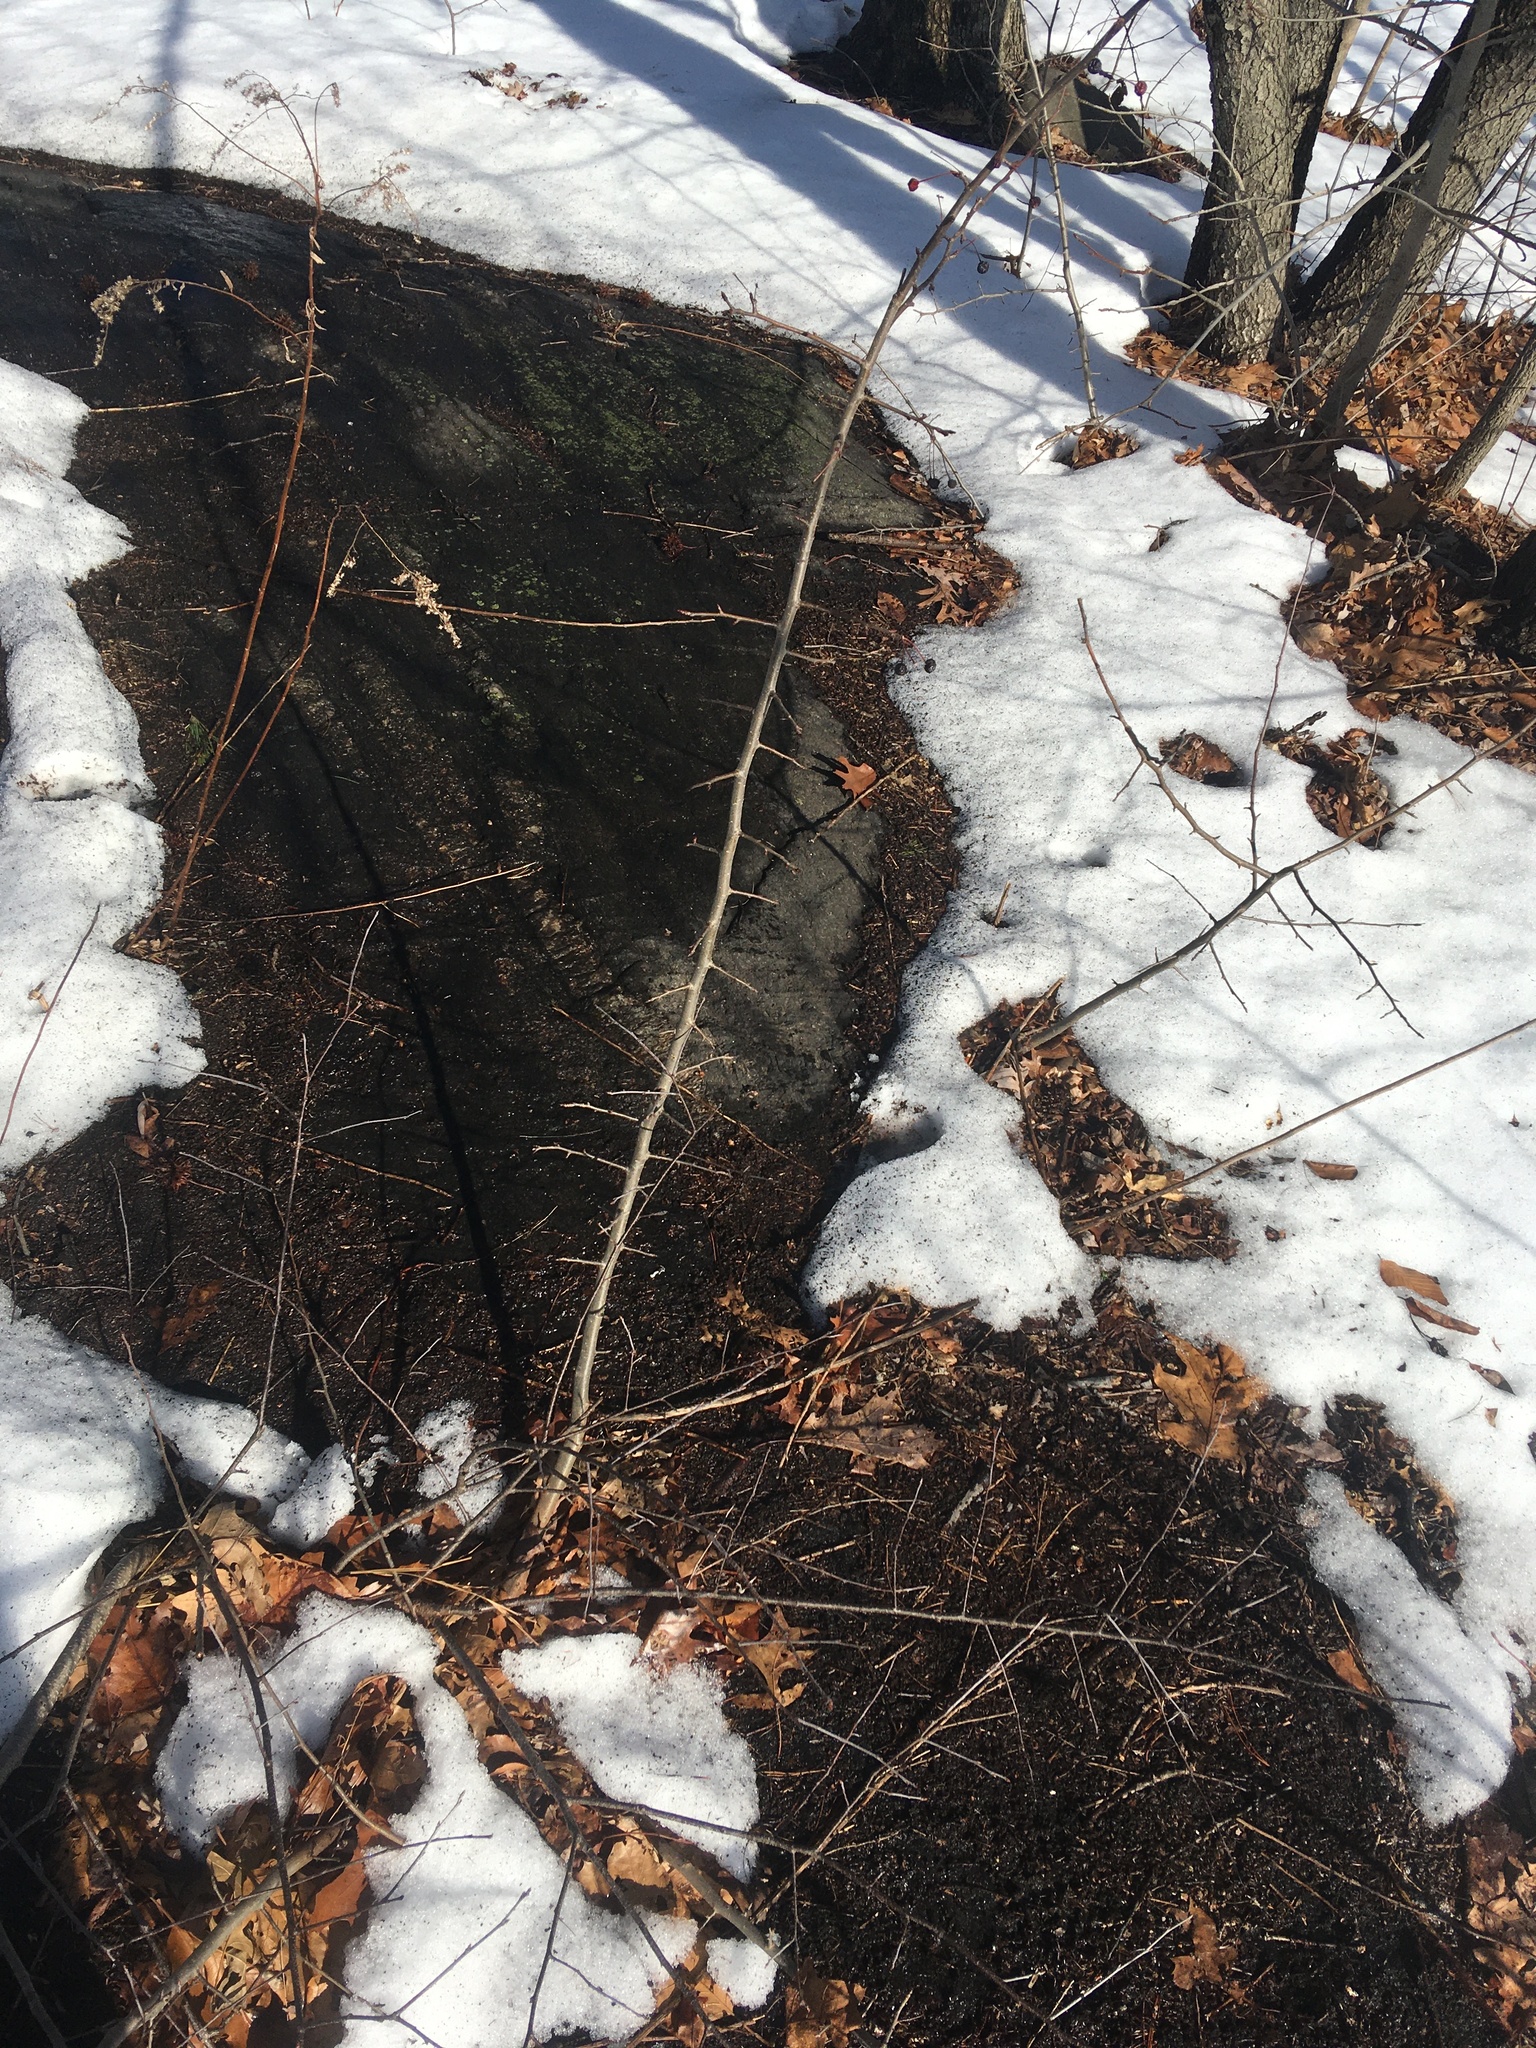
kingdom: Plantae
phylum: Tracheophyta
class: Magnoliopsida
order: Rosales
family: Rosaceae
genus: Malus
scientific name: Malus hupehensis
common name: Chinese crab apple
